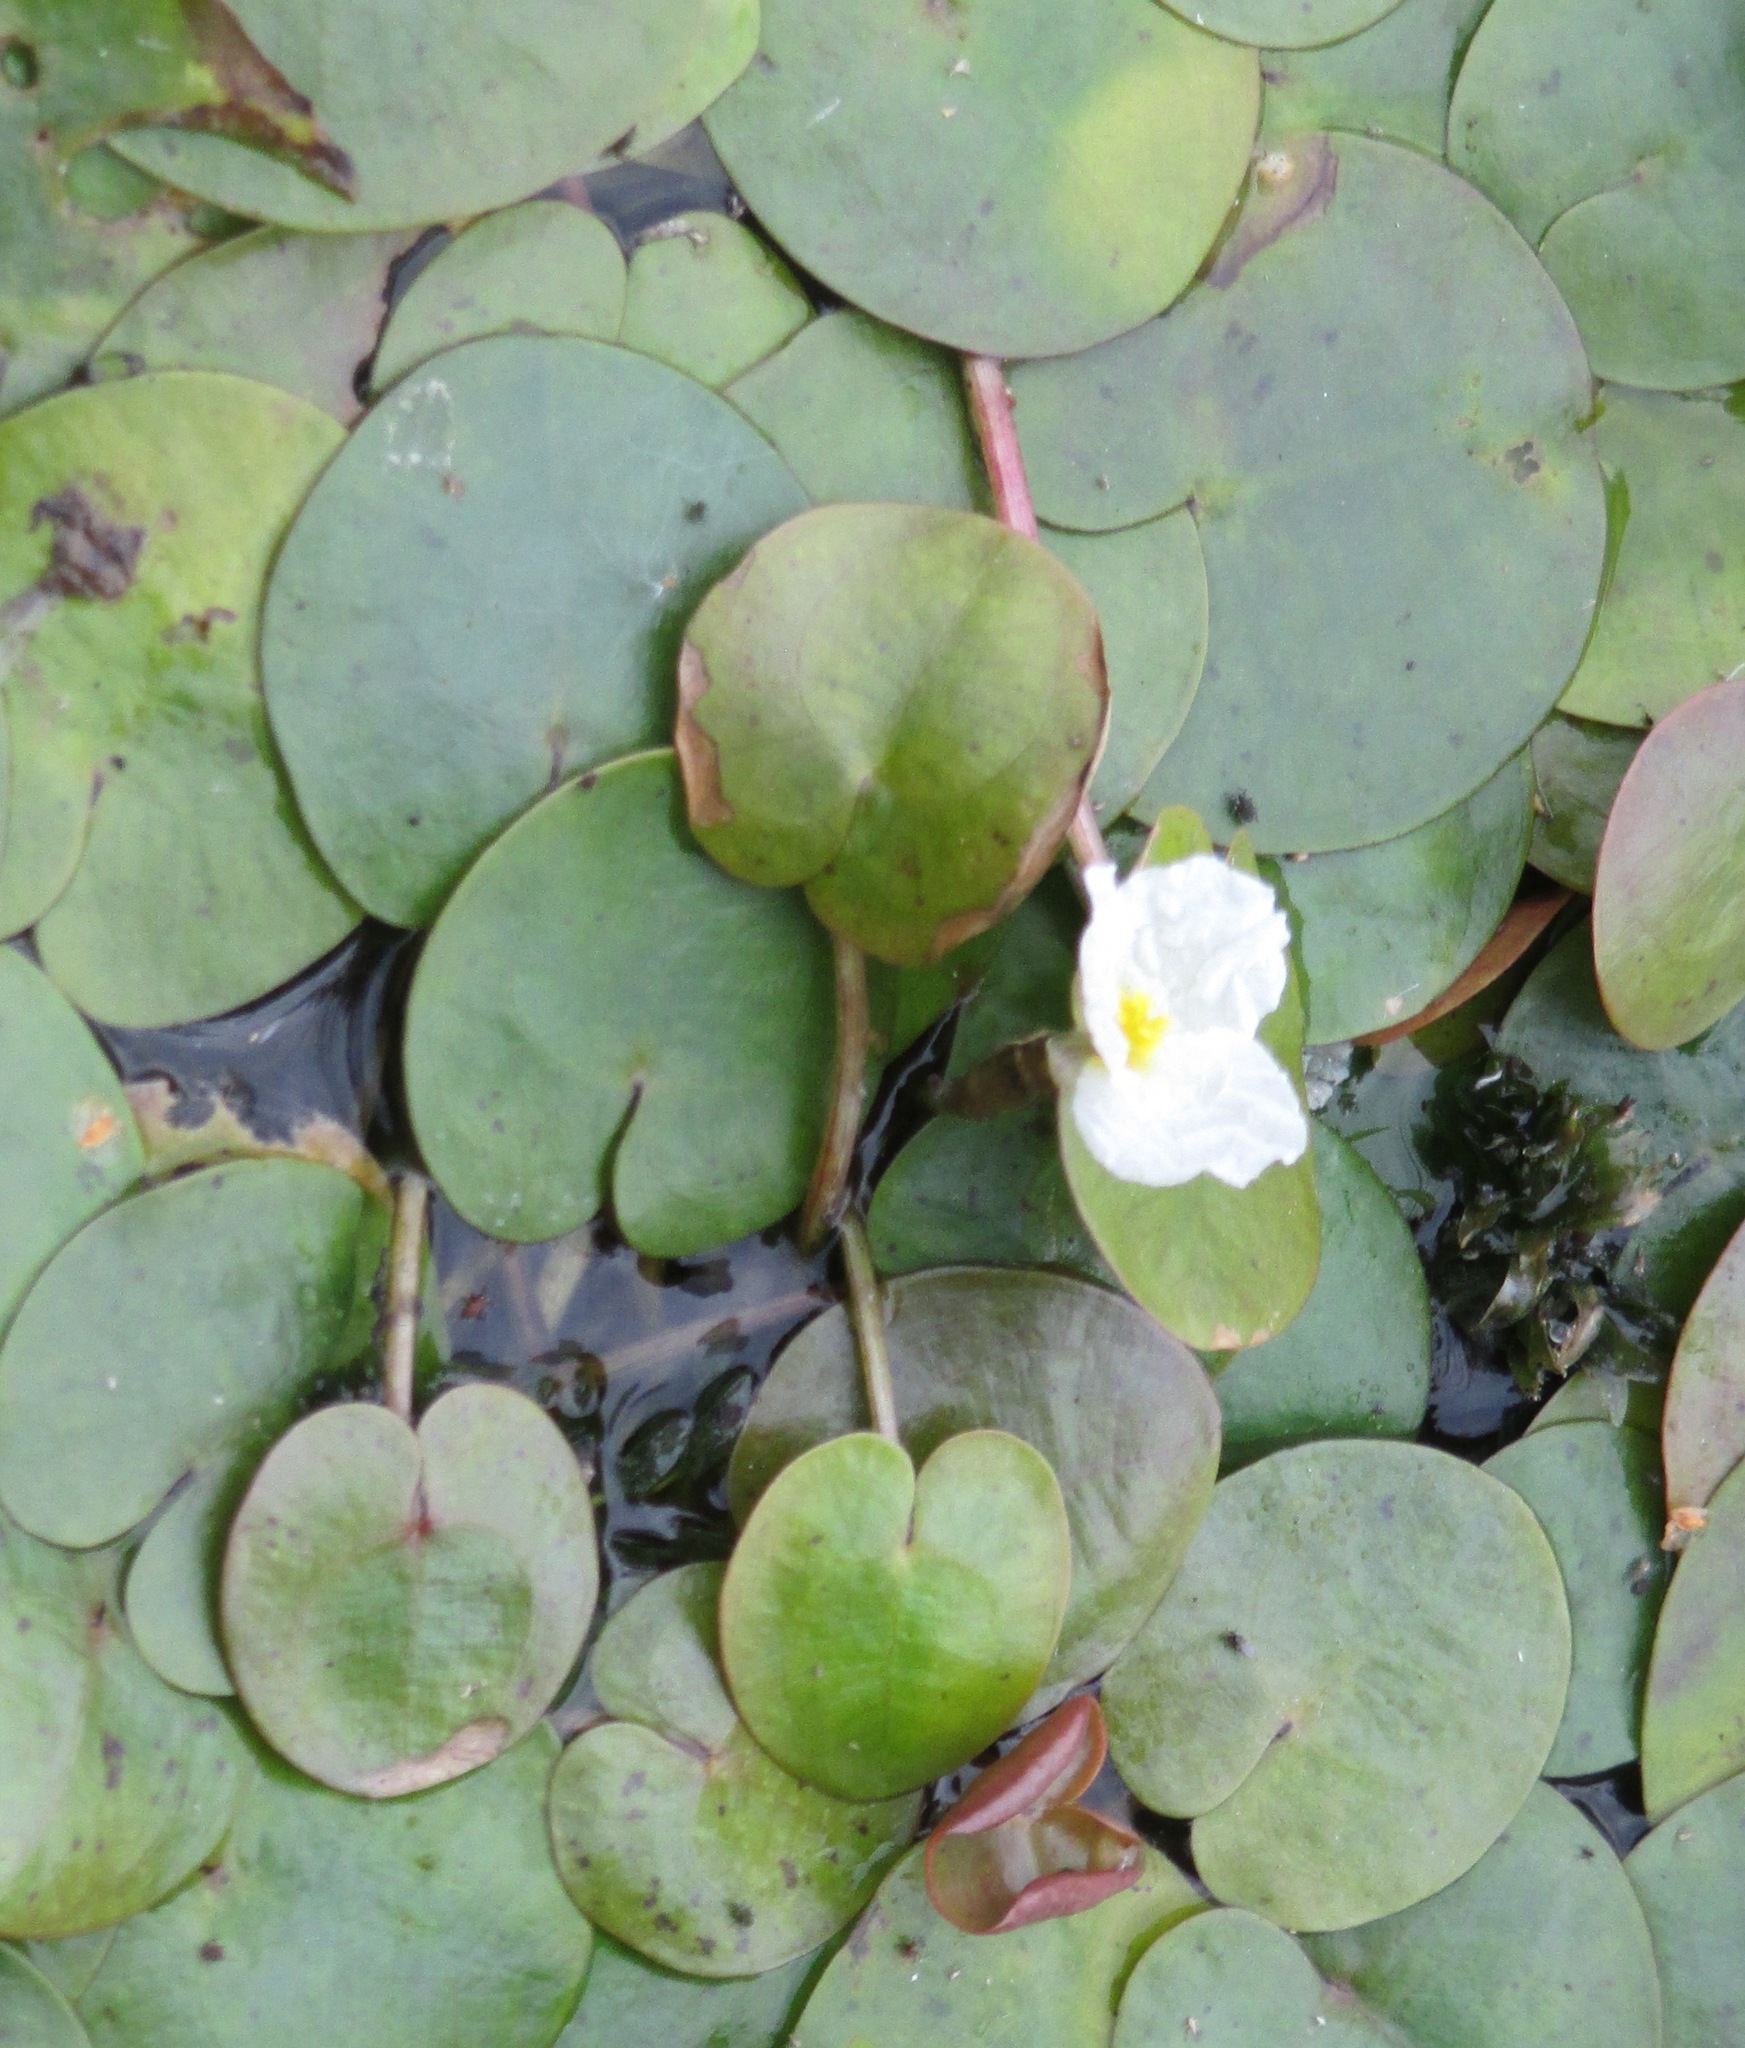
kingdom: Plantae
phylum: Tracheophyta
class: Liliopsida
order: Alismatales
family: Hydrocharitaceae
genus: Hydrocharis
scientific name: Hydrocharis morsus-ranae
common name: Frogbit
